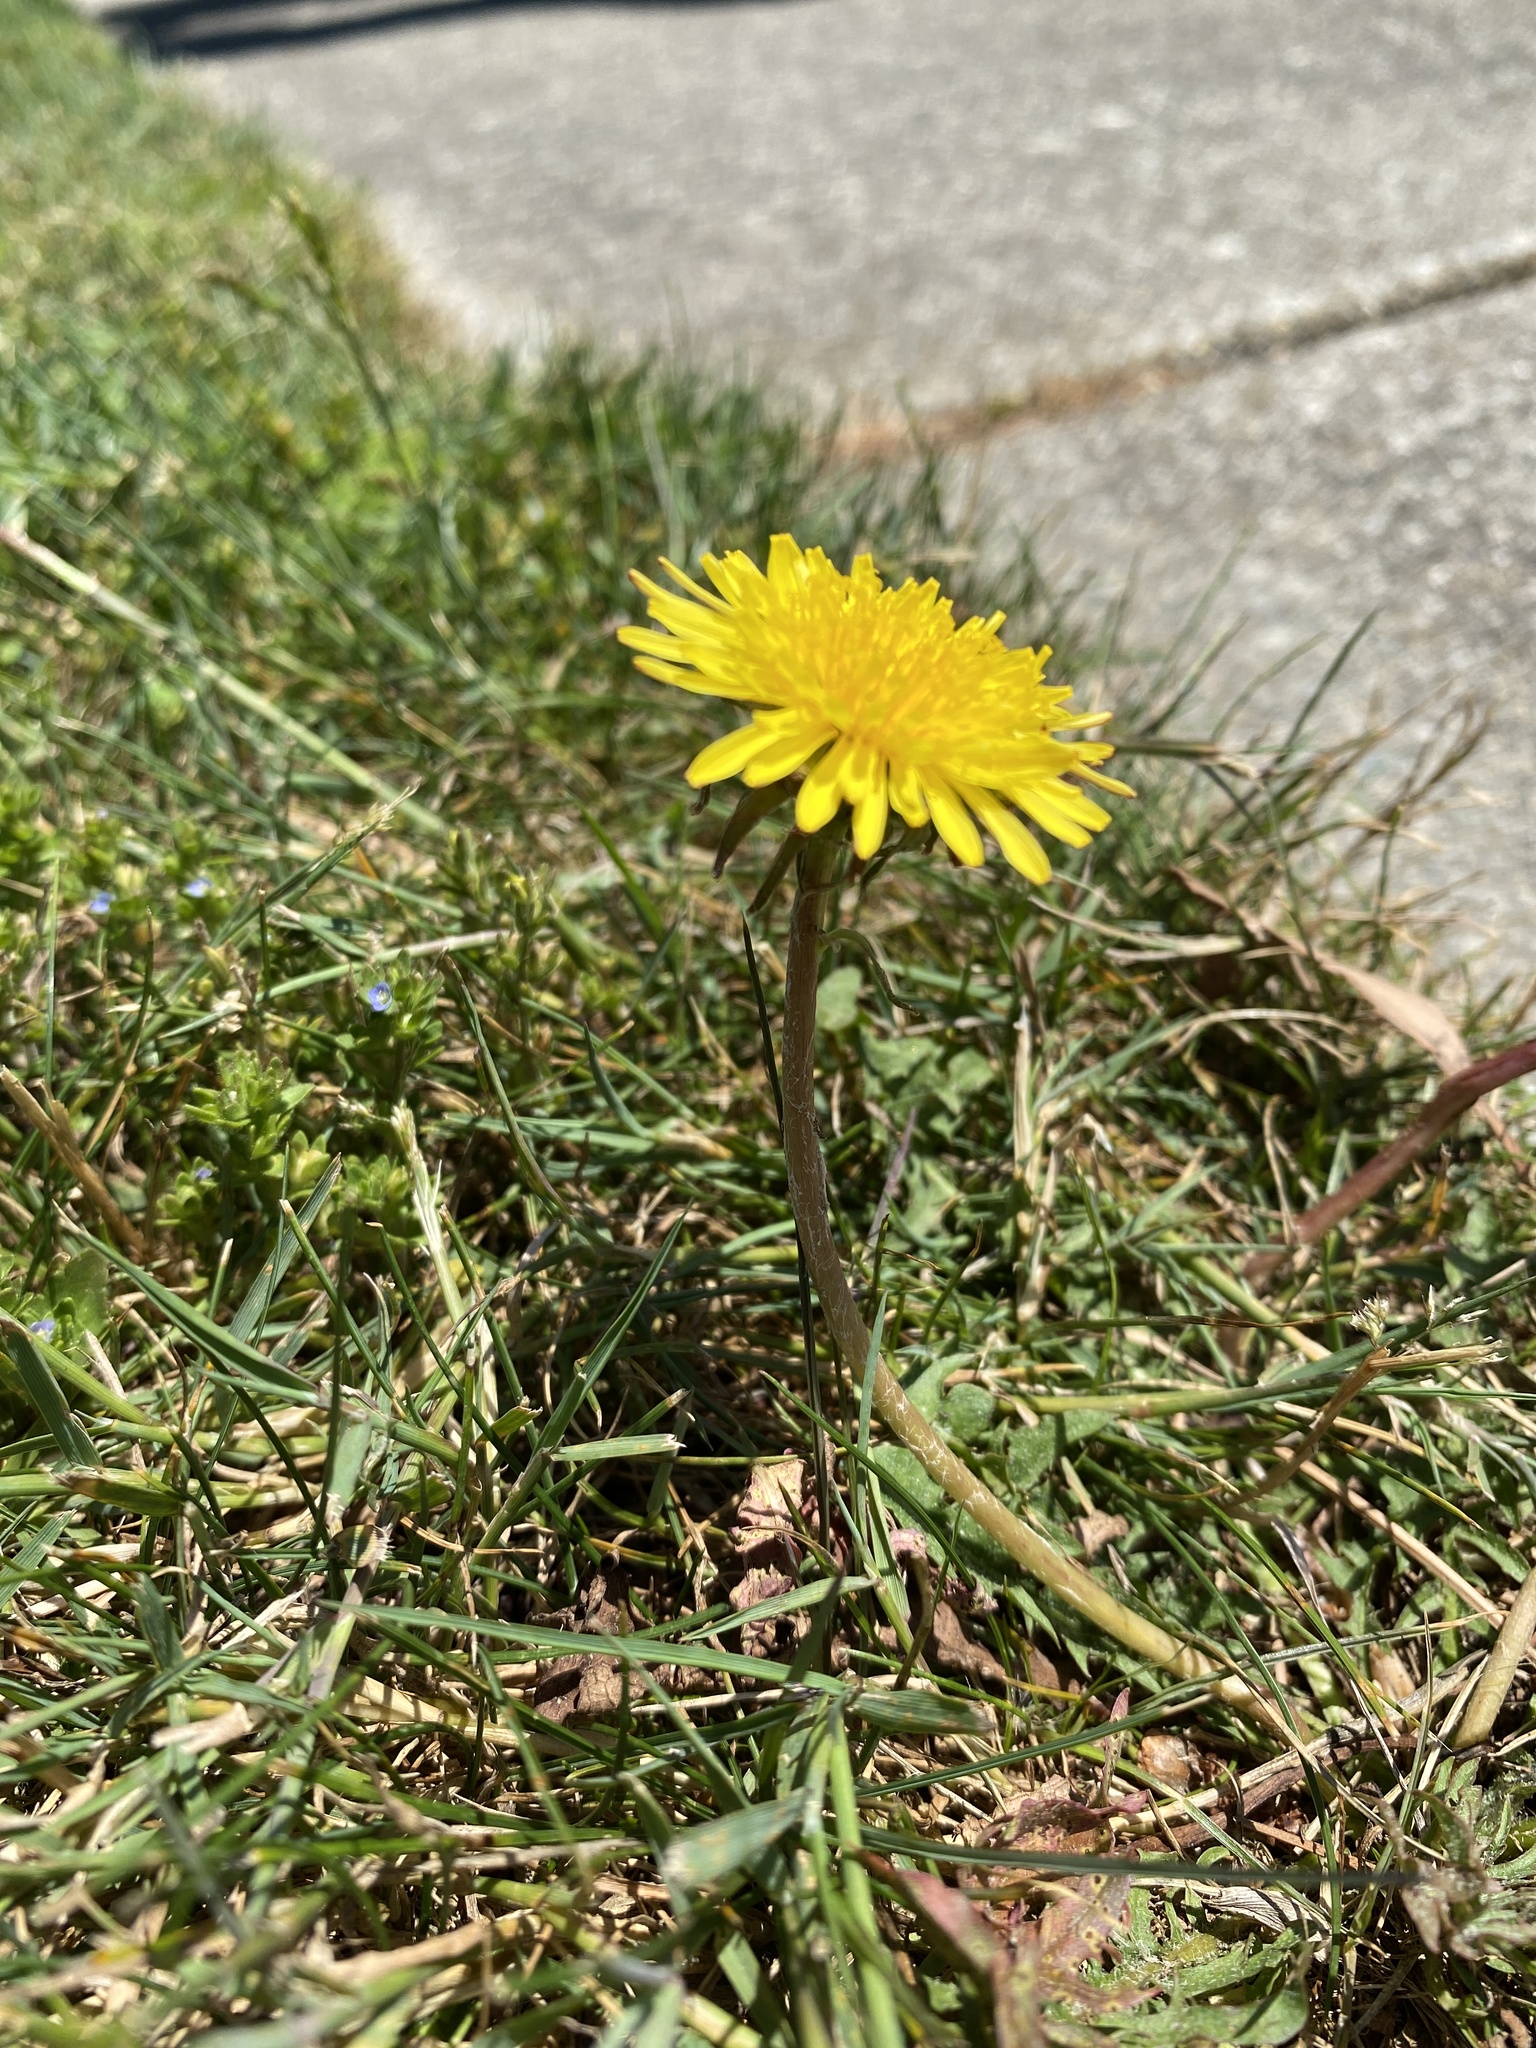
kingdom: Plantae
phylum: Tracheophyta
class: Magnoliopsida
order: Asterales
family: Asteraceae
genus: Taraxacum
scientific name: Taraxacum officinale
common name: Common dandelion
